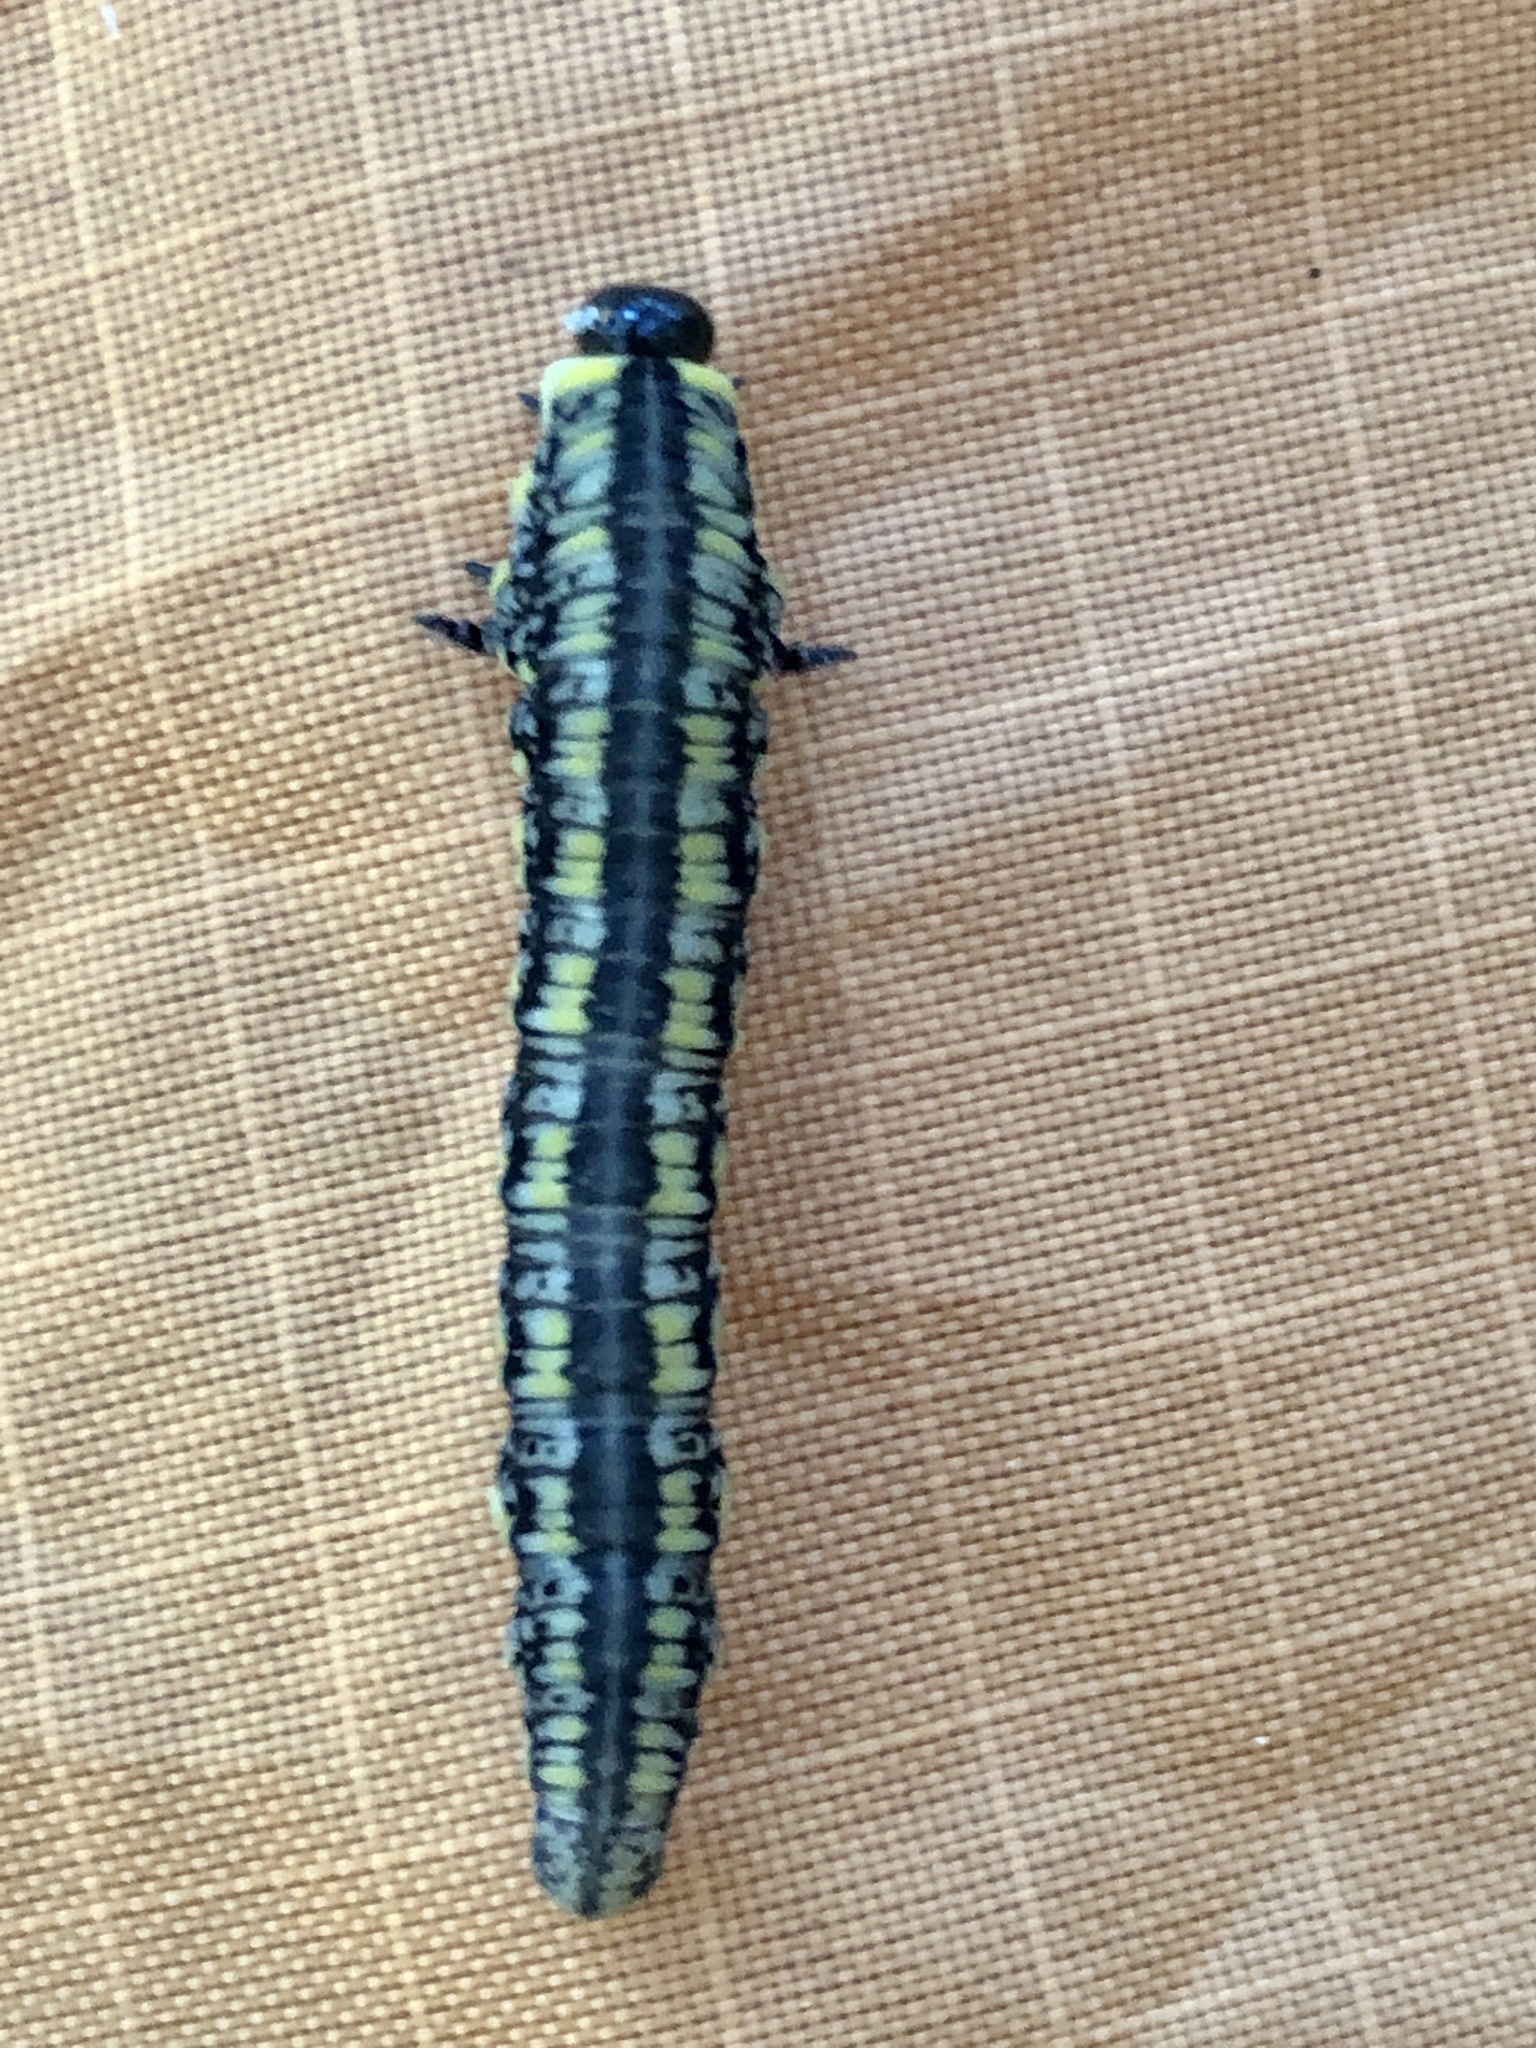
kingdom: Animalia
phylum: Arthropoda
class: Insecta
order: Hymenoptera
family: Diprionidae
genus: Diprion
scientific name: Diprion similis
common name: Pine sawfly
